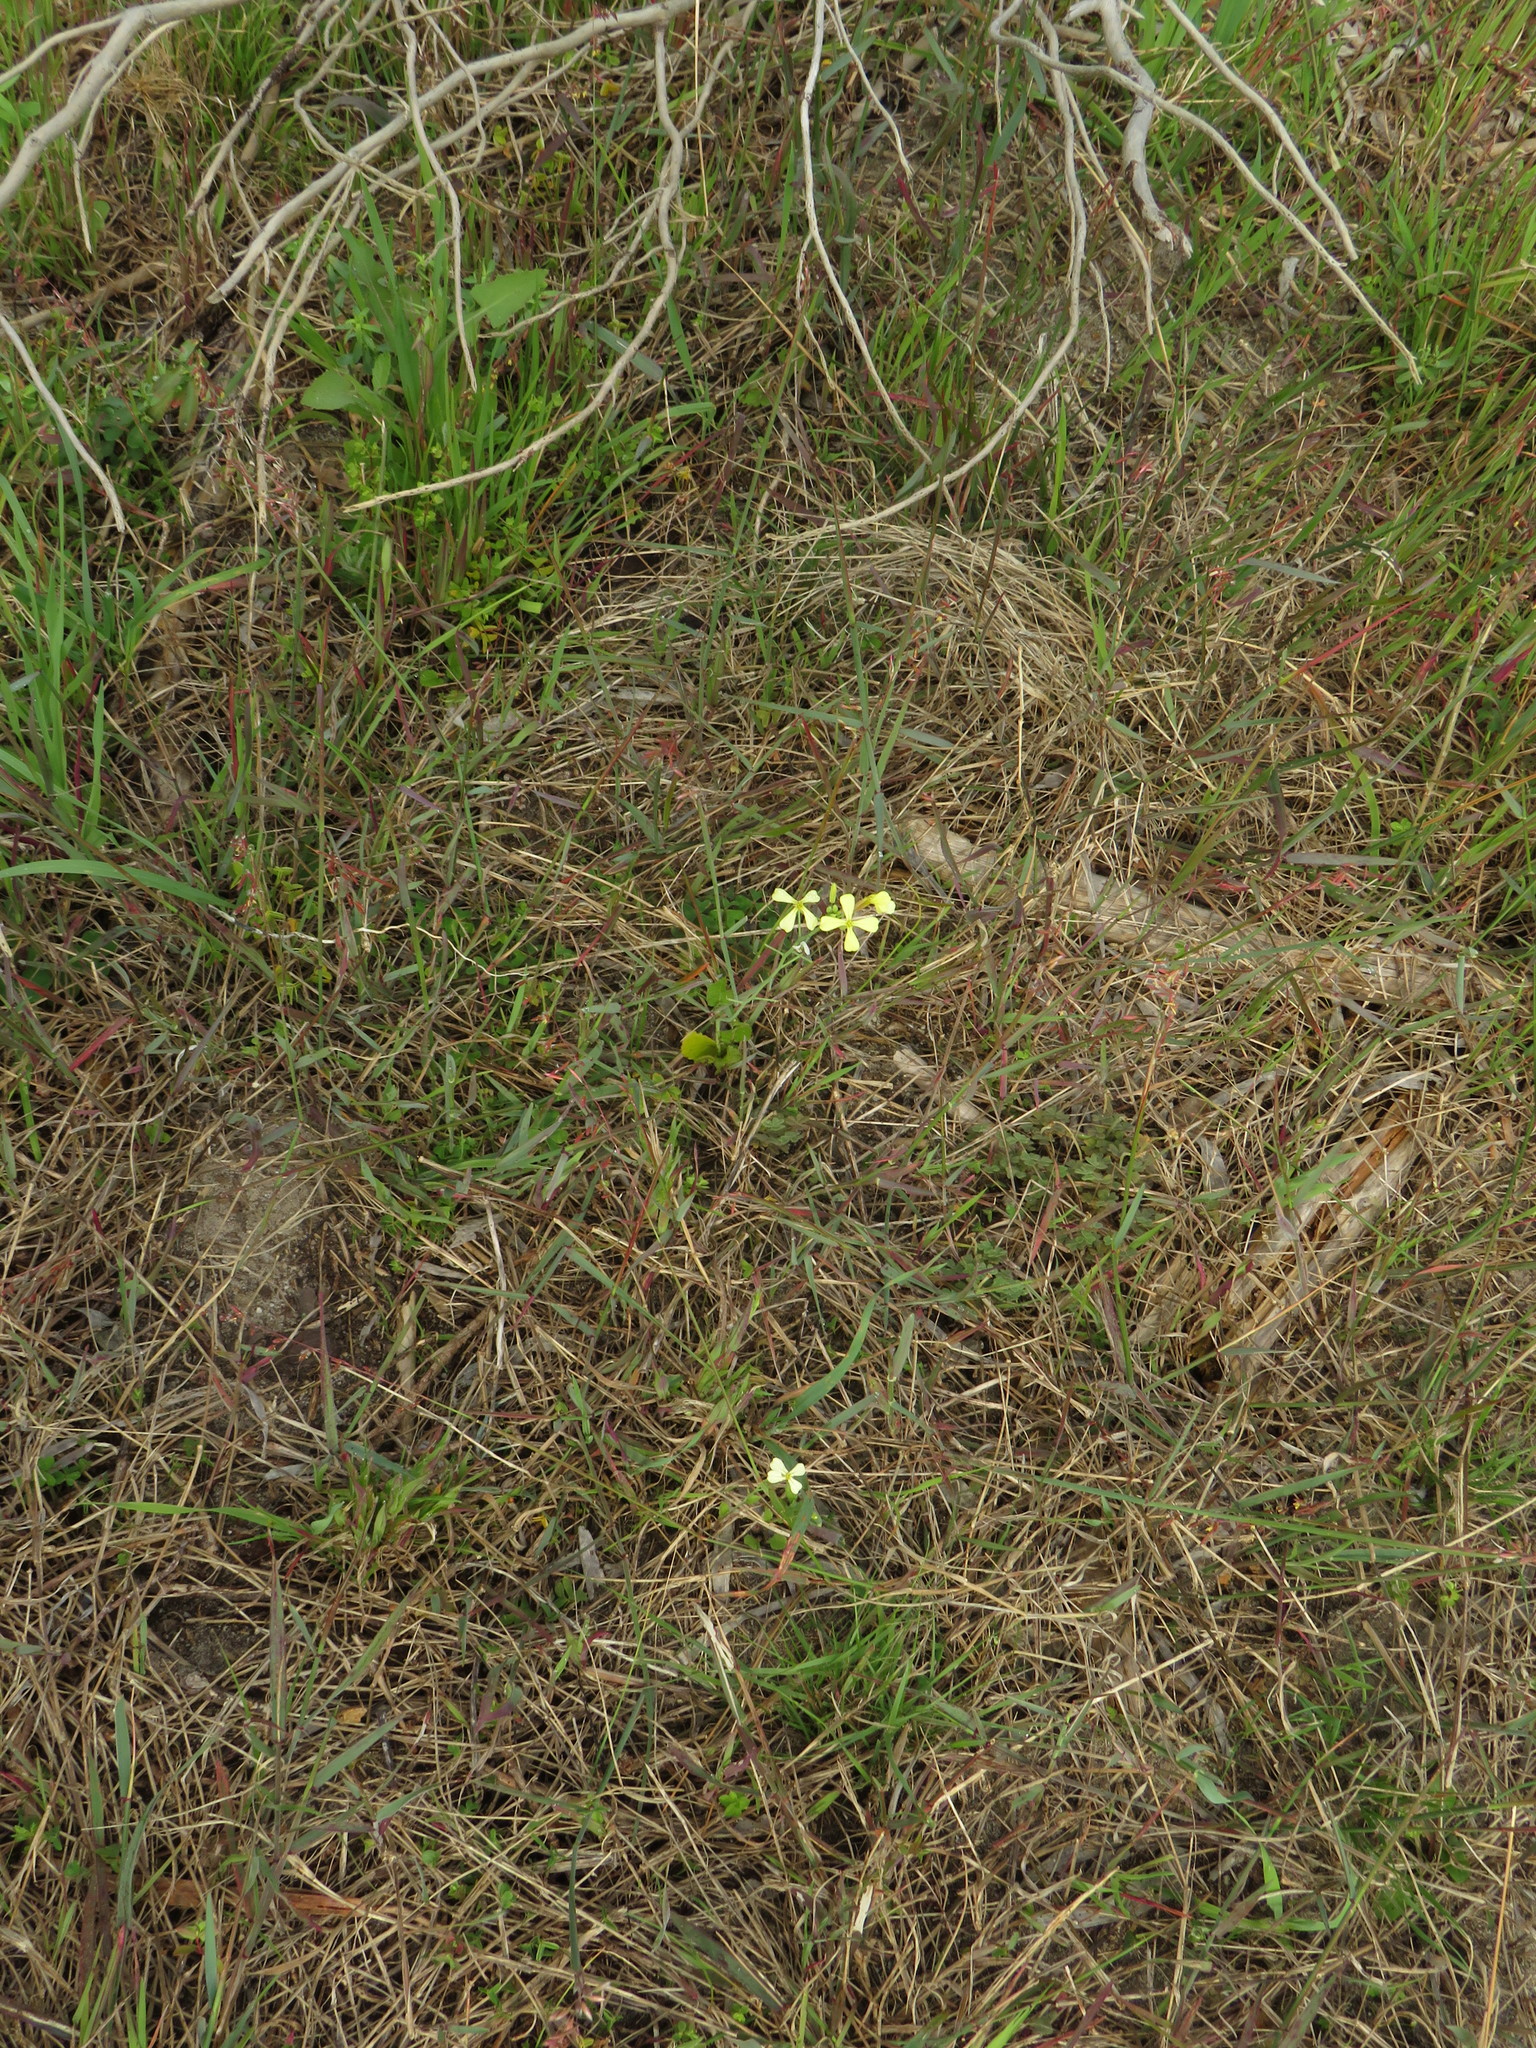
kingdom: Plantae
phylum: Tracheophyta
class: Magnoliopsida
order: Brassicales
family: Brassicaceae
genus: Raphanus
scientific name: Raphanus raphanistrum
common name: Wild radish
